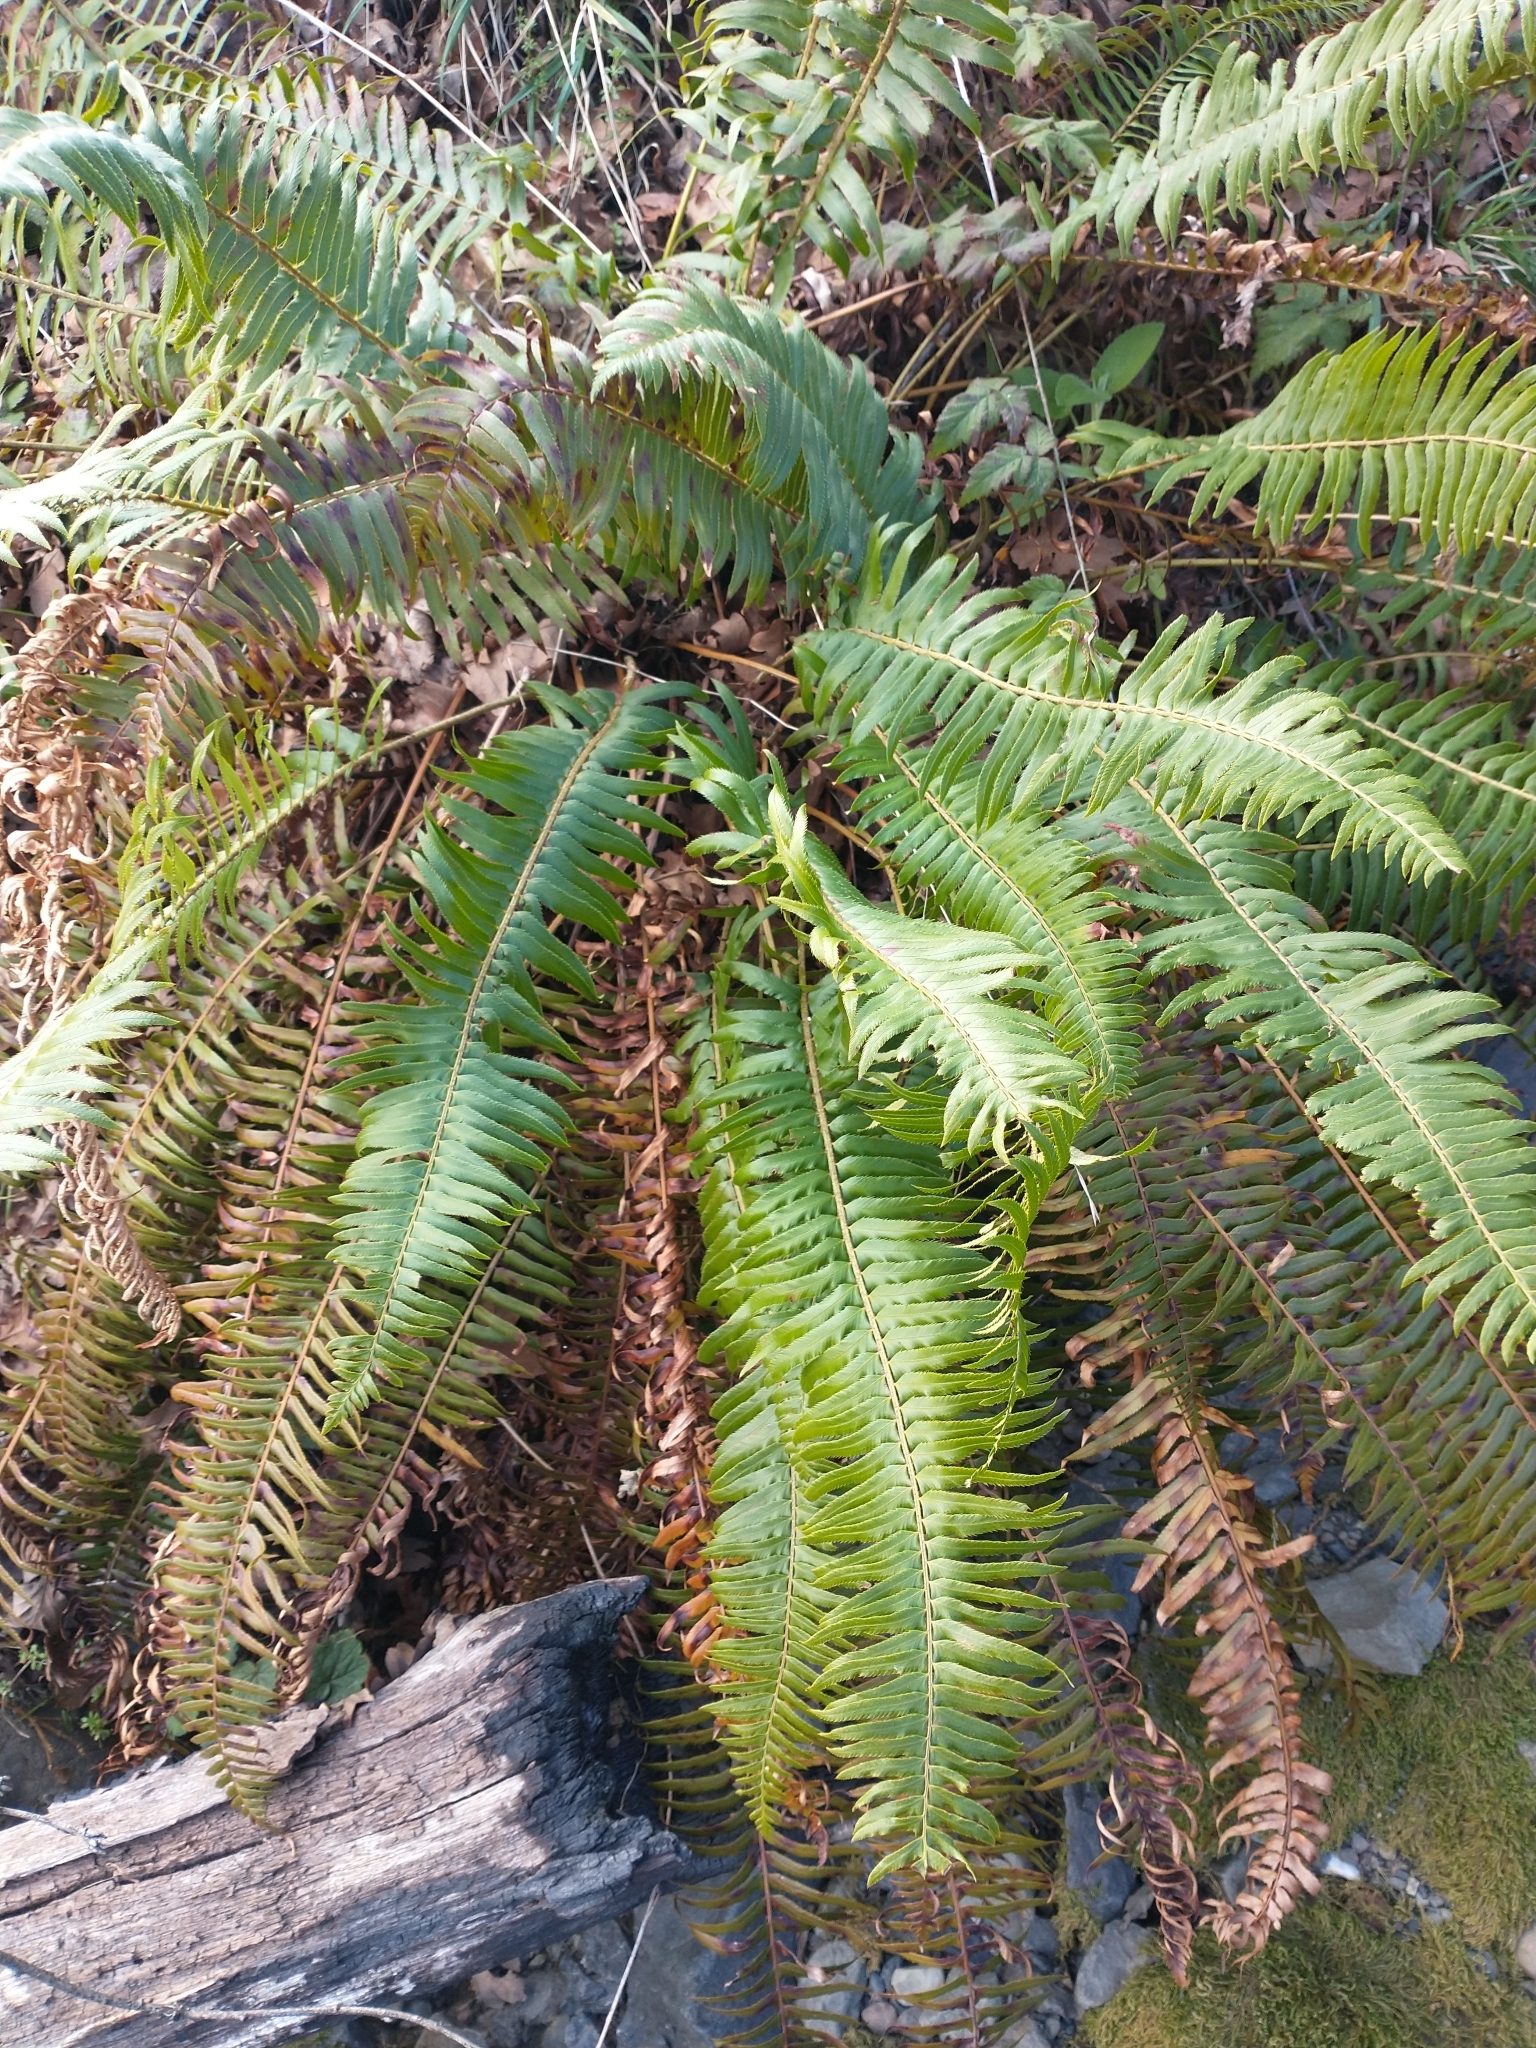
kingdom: Plantae
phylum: Tracheophyta
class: Polypodiopsida
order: Polypodiales
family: Dryopteridaceae
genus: Polystichum
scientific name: Polystichum munitum
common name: Western sword-fern
